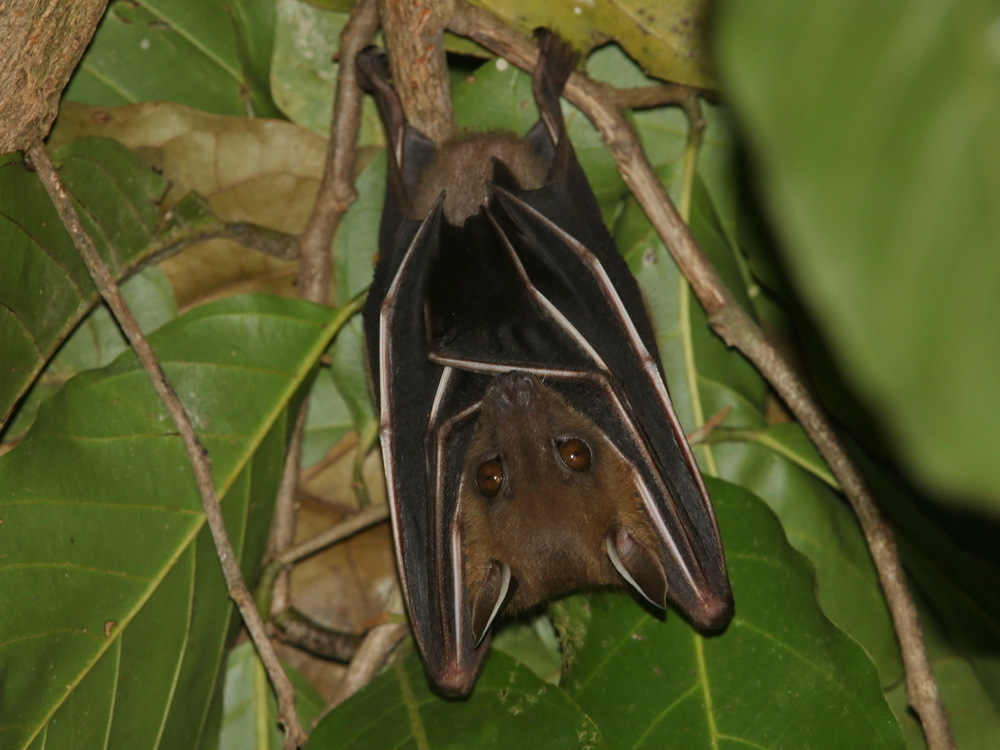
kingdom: Animalia
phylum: Chordata
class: Mammalia
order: Chiroptera
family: Pteropodidae
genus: Cynopterus
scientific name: Cynopterus sphinx
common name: Greater short-nosed fruit bat
